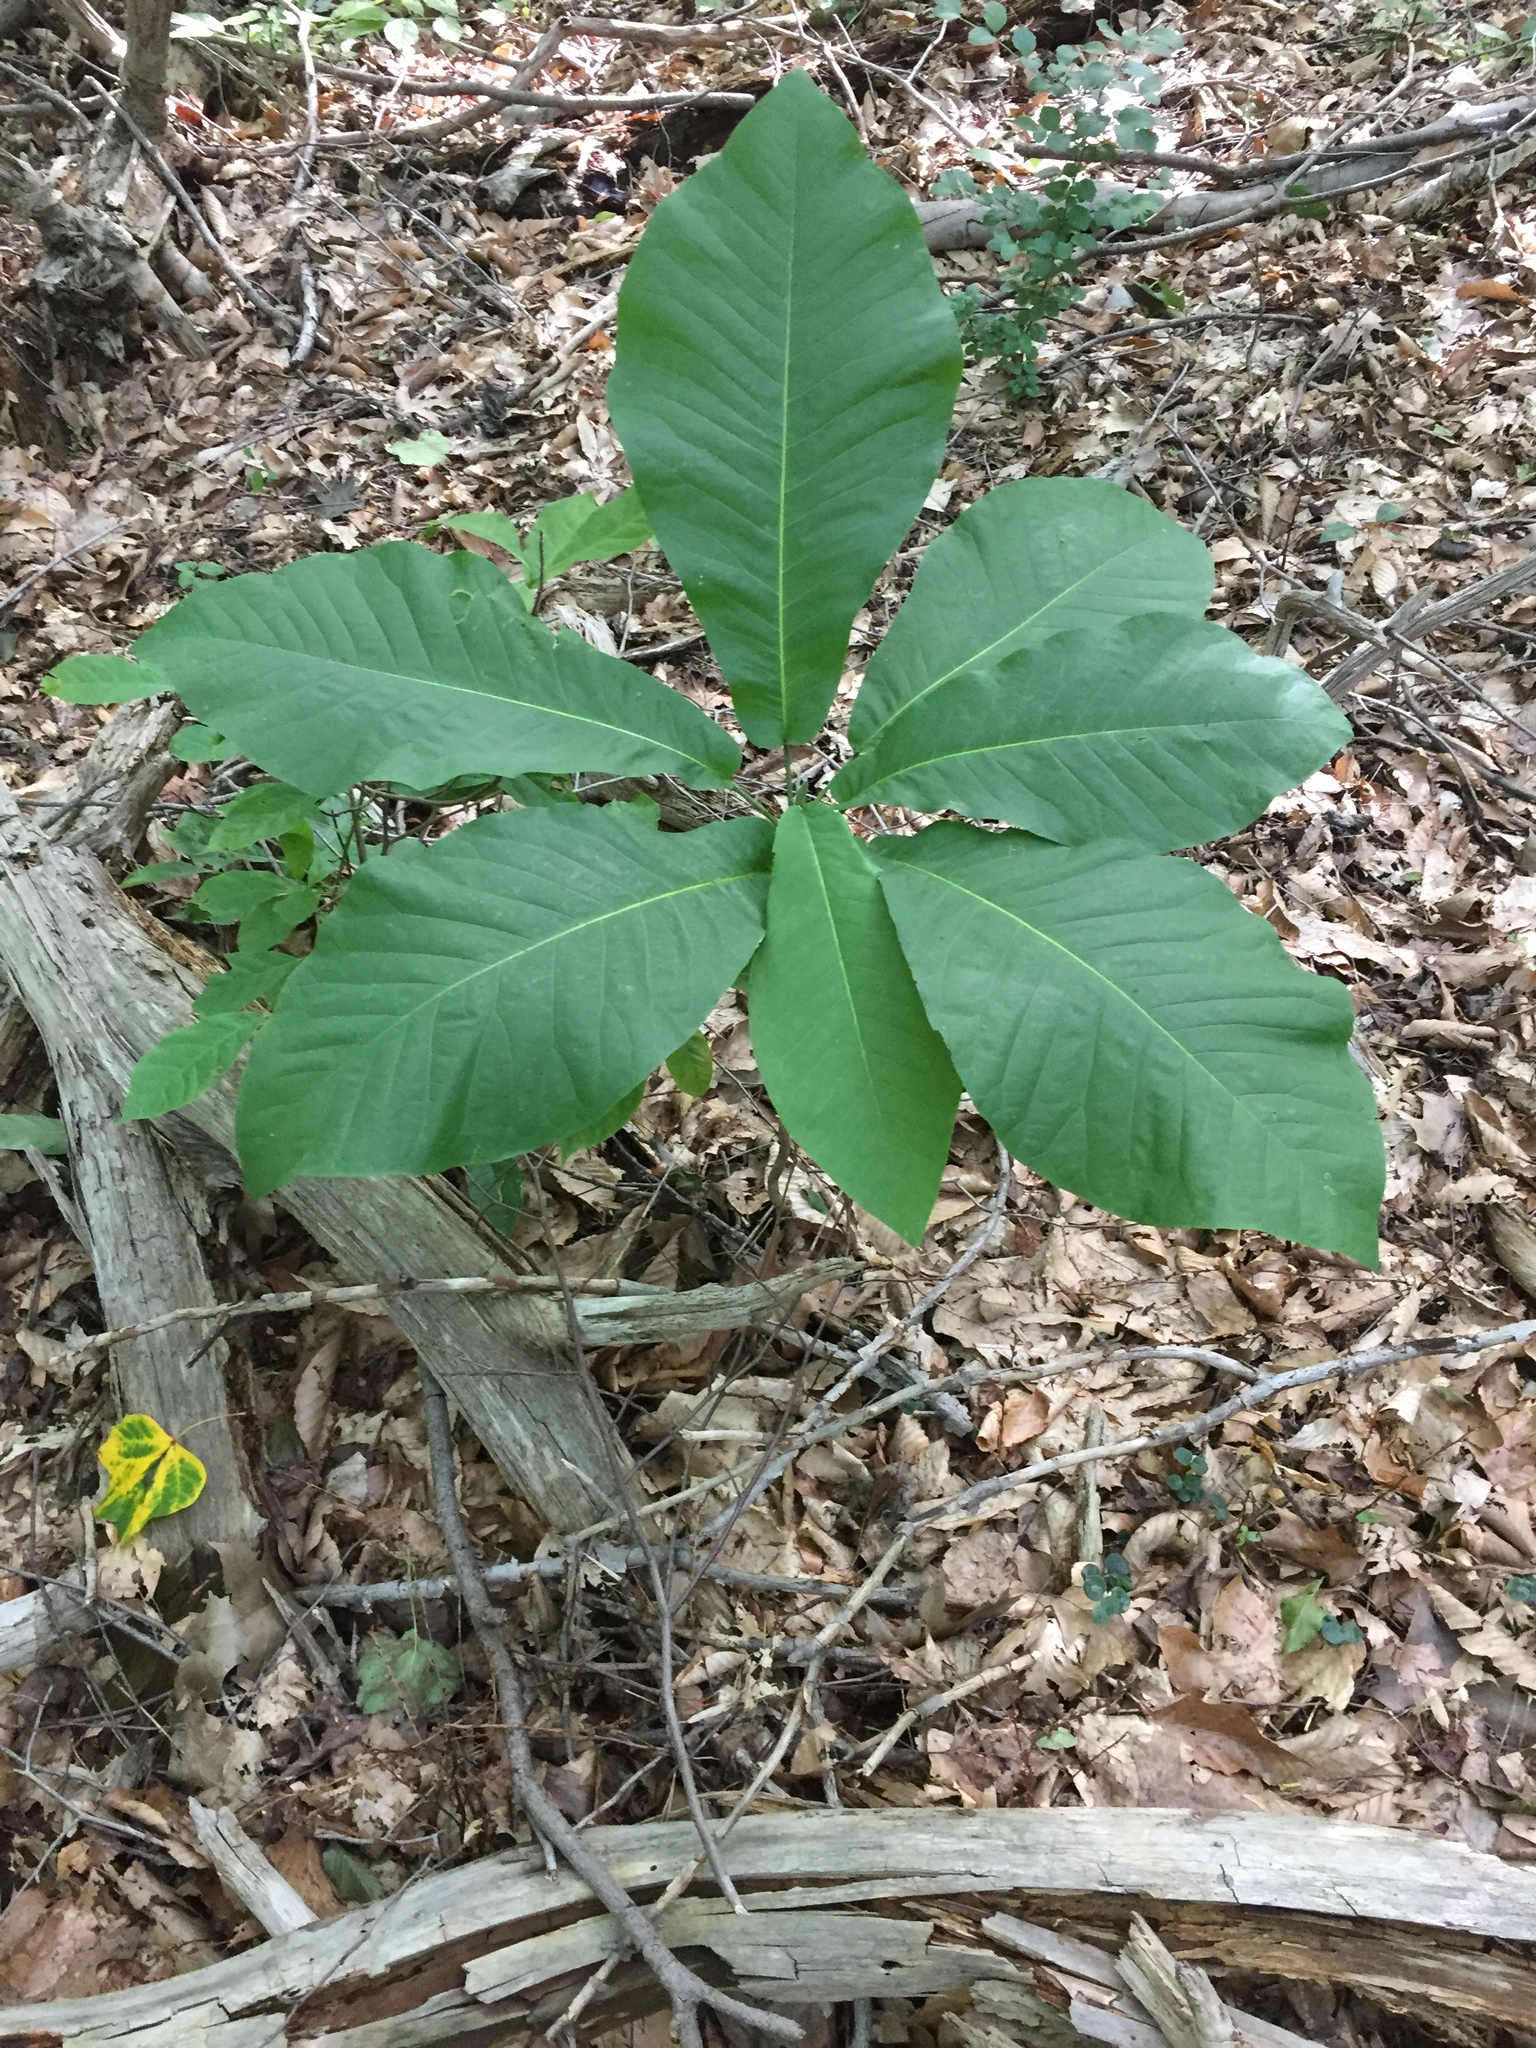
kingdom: Plantae
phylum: Tracheophyta
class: Magnoliopsida
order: Magnoliales
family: Magnoliaceae
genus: Magnolia
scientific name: Magnolia macrophylla
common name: Big-leaf magnolia
